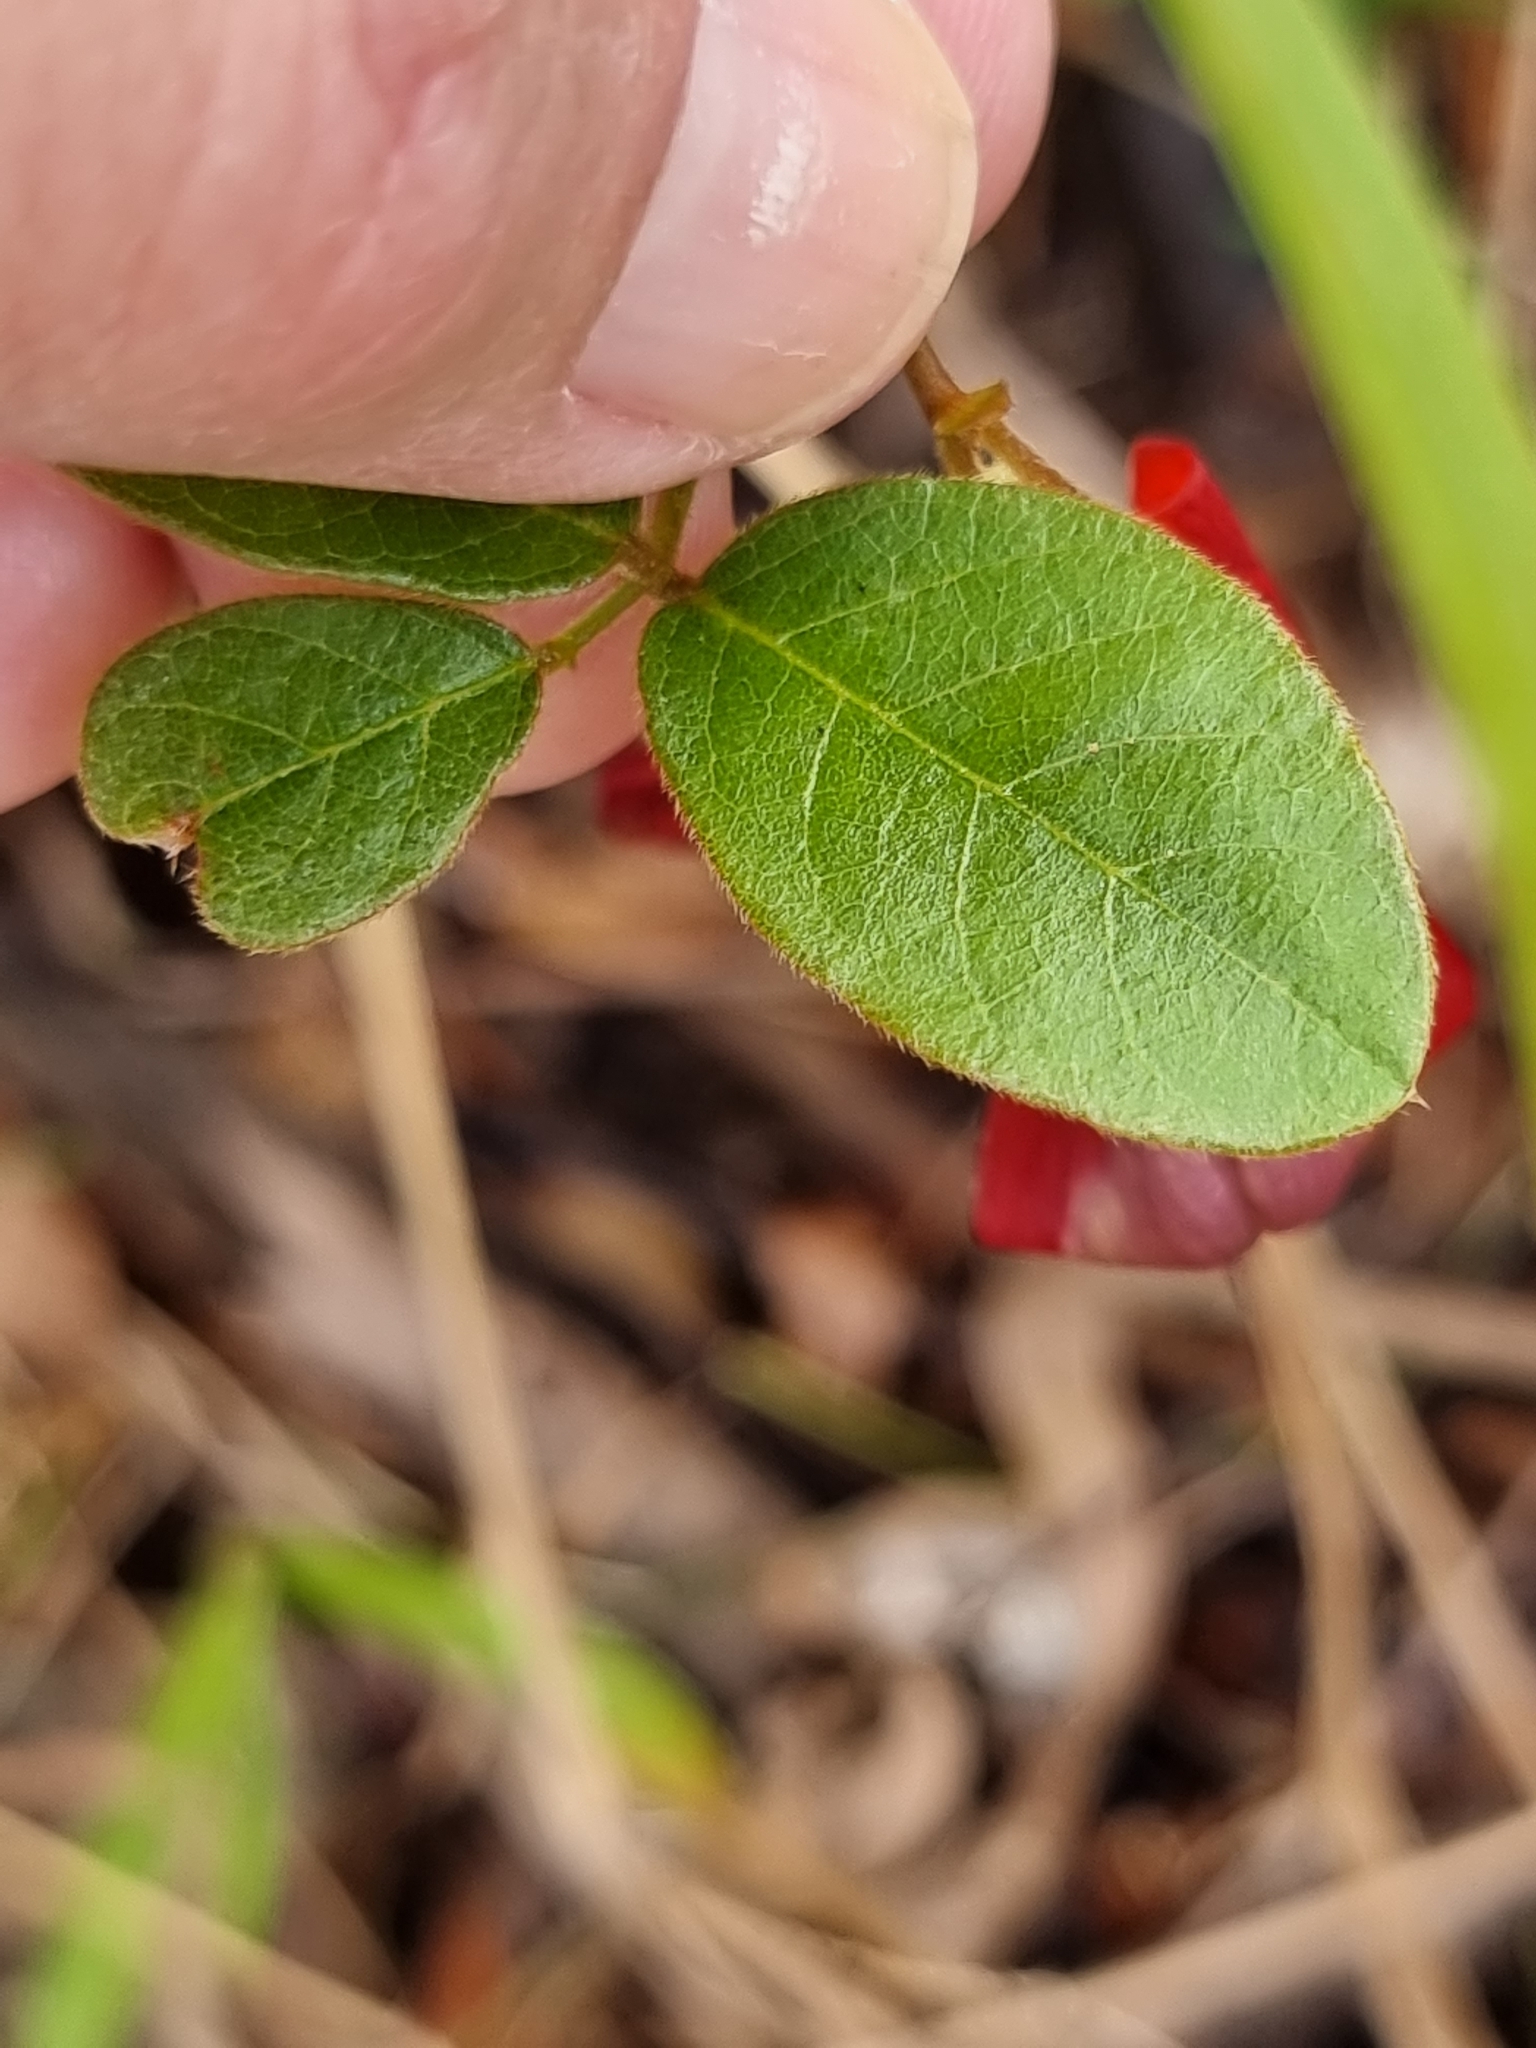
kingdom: Plantae
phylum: Tracheophyta
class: Magnoliopsida
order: Fabales
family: Fabaceae
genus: Kennedia
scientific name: Kennedia rubicunda
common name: Red kennedy-pea
